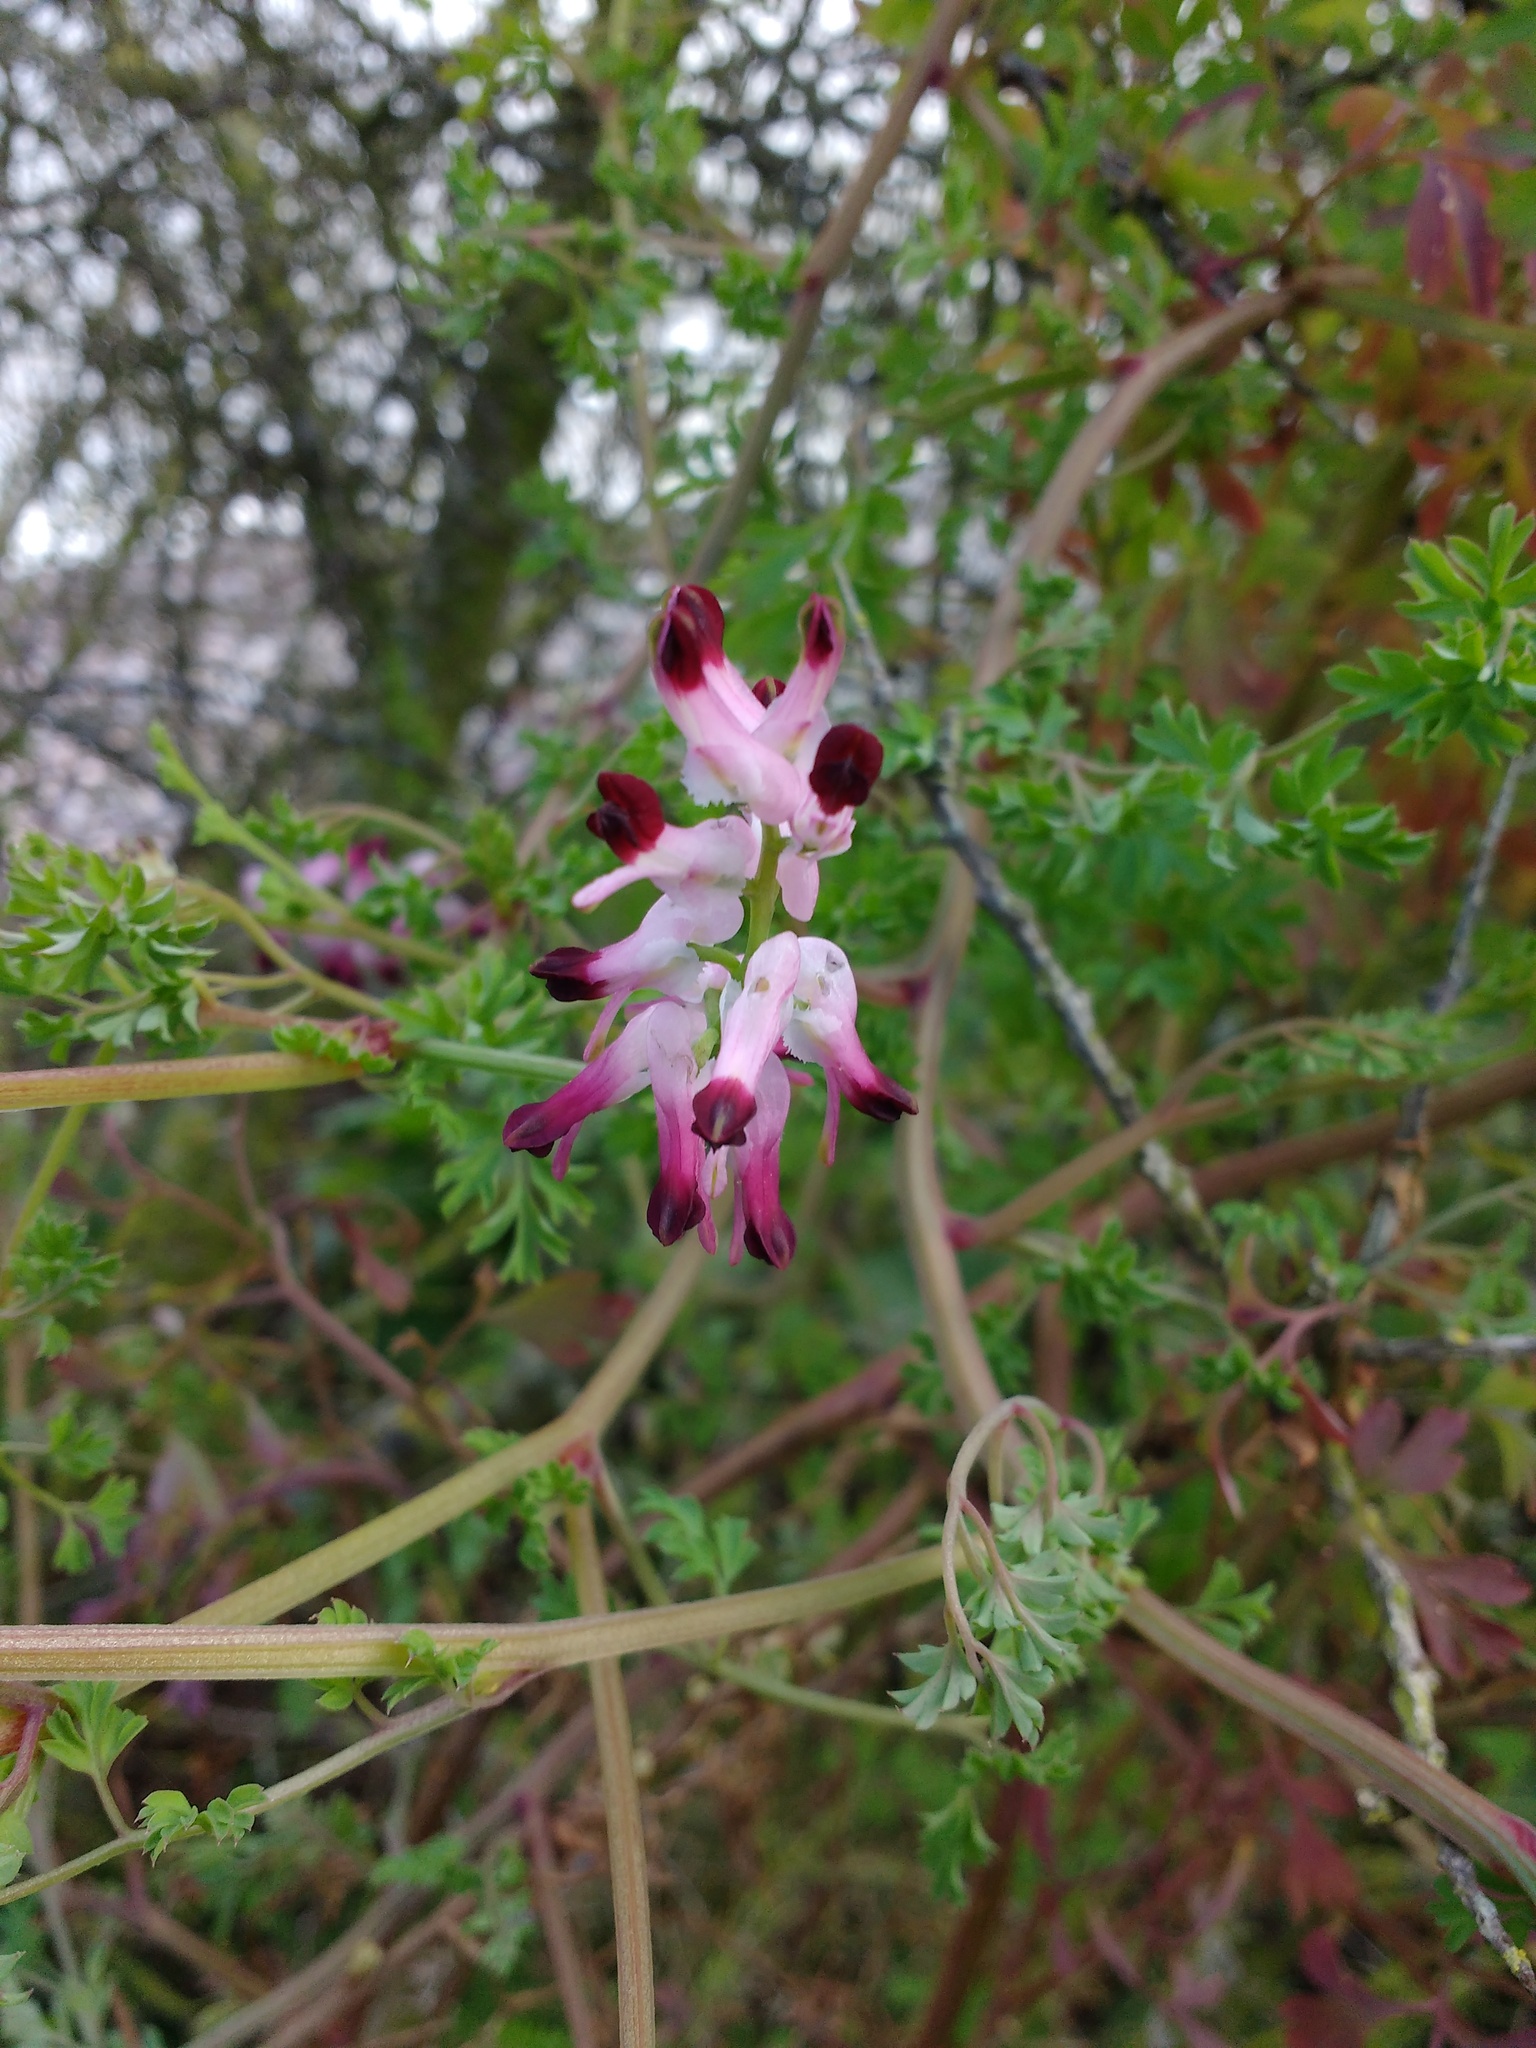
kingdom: Plantae
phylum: Tracheophyta
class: Magnoliopsida
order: Ranunculales
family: Papaveraceae
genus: Fumaria
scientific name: Fumaria muralis
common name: Common ramping-fumitory
